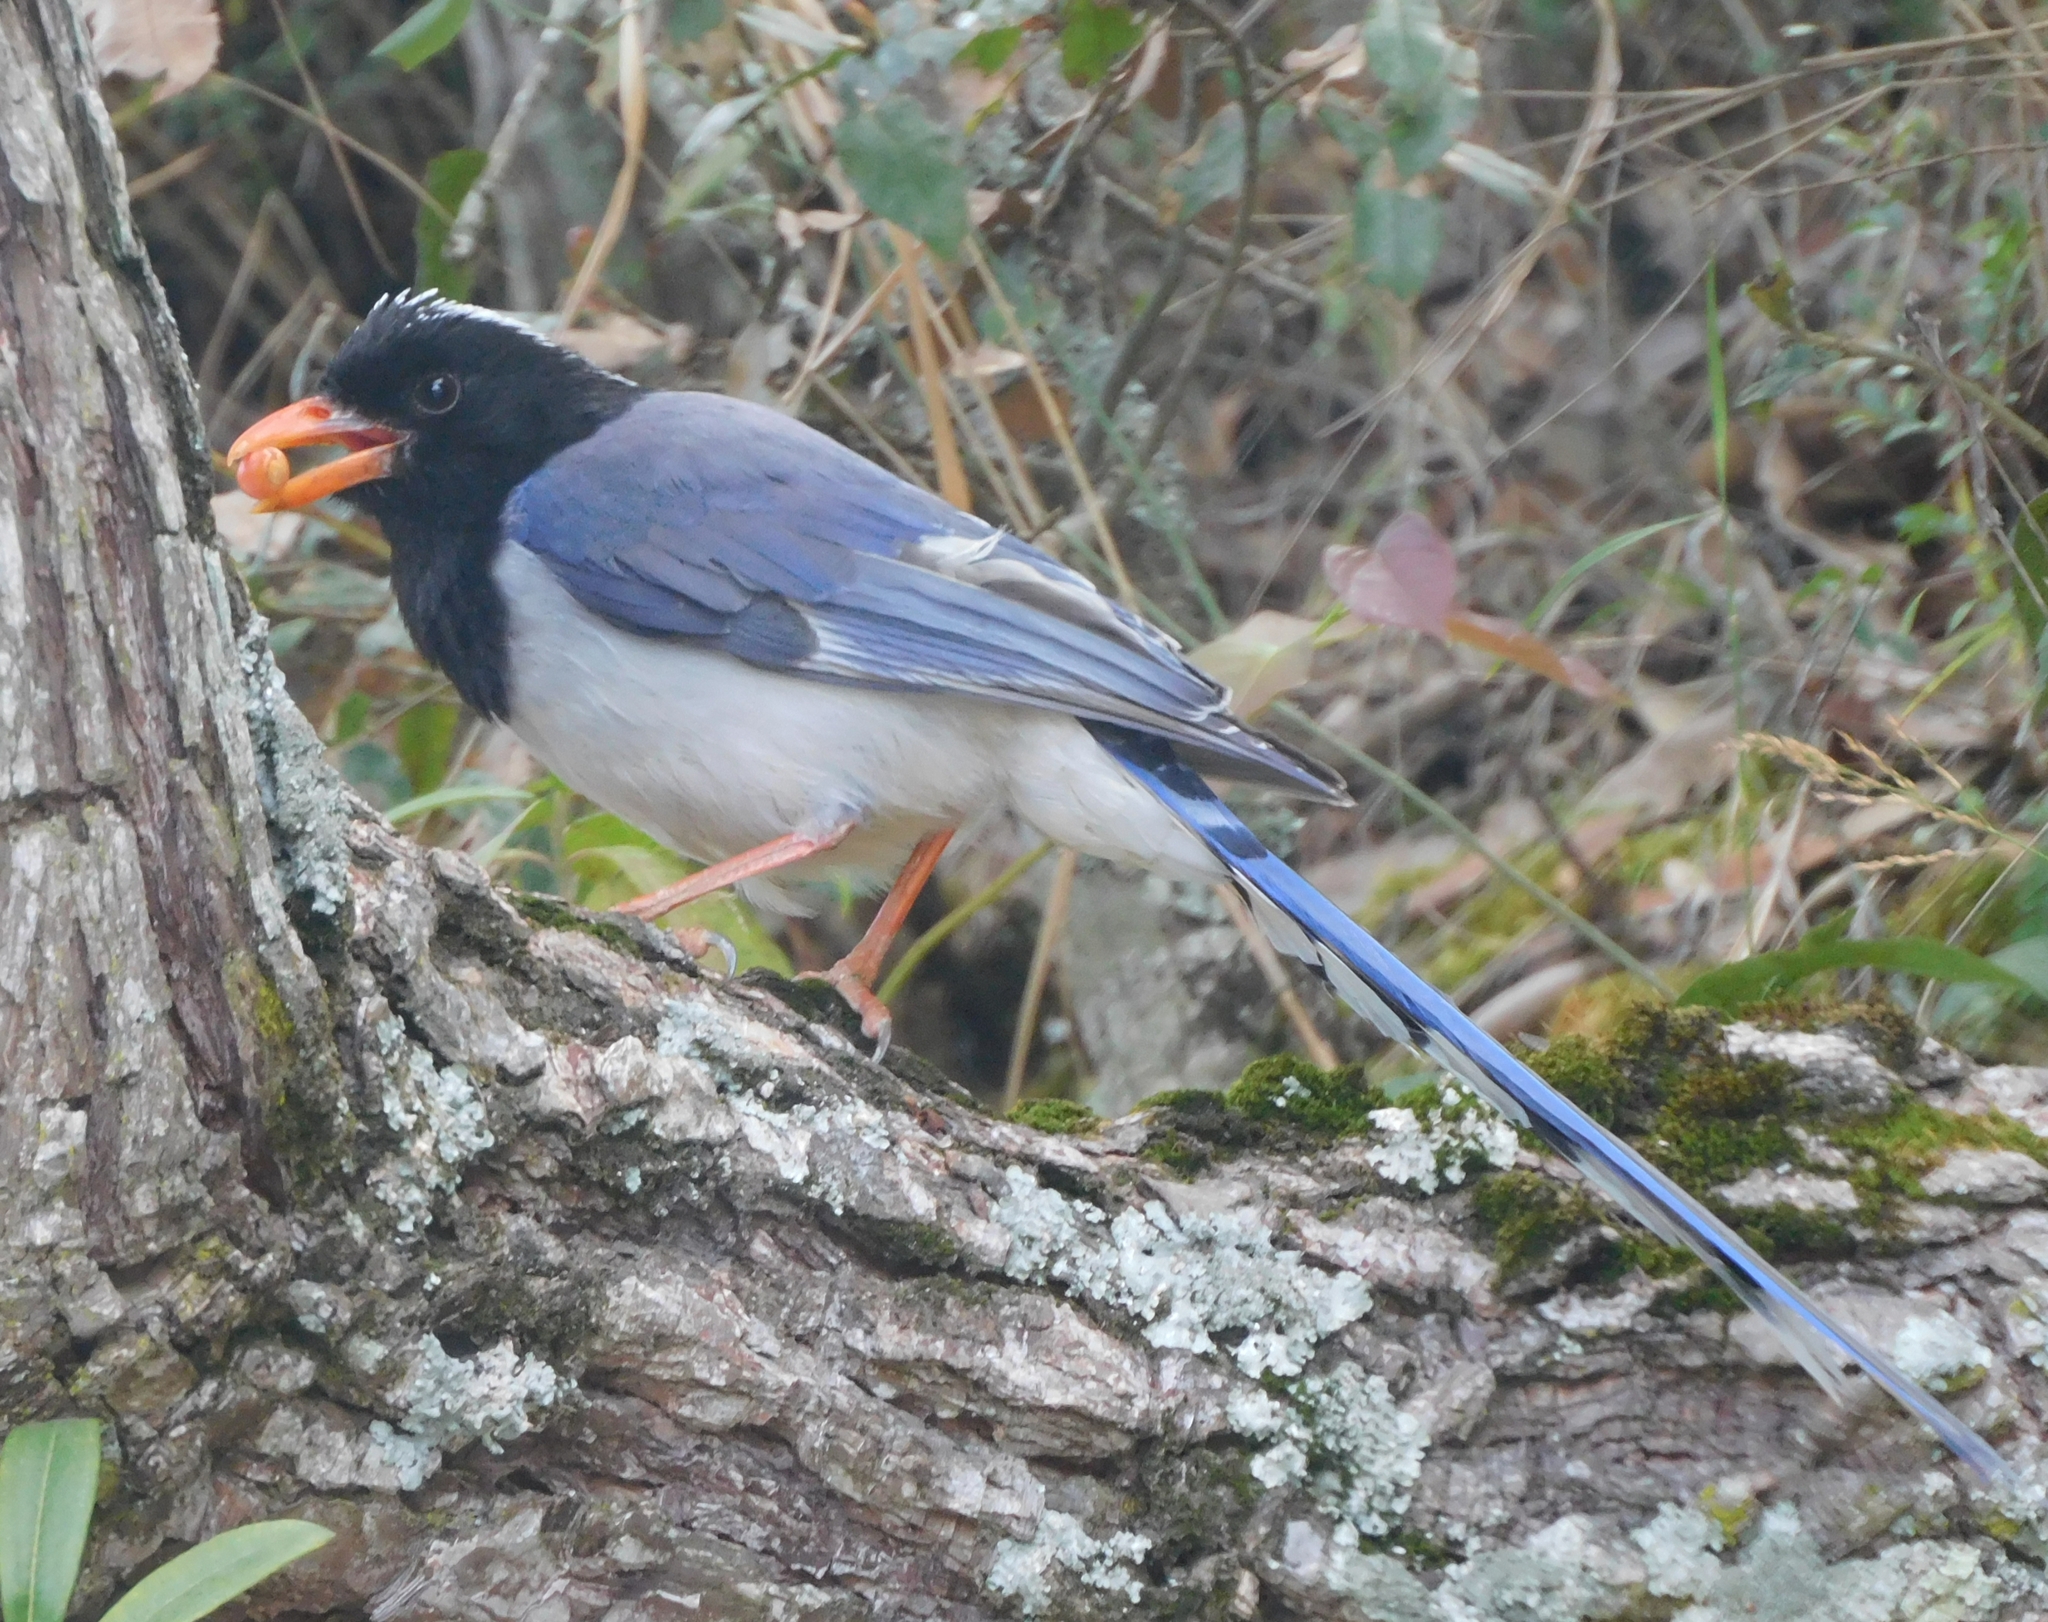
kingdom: Animalia
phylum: Chordata
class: Aves
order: Passeriformes
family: Corvidae
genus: Urocissa
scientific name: Urocissa erythroryncha
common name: Red-billed blue magpie
